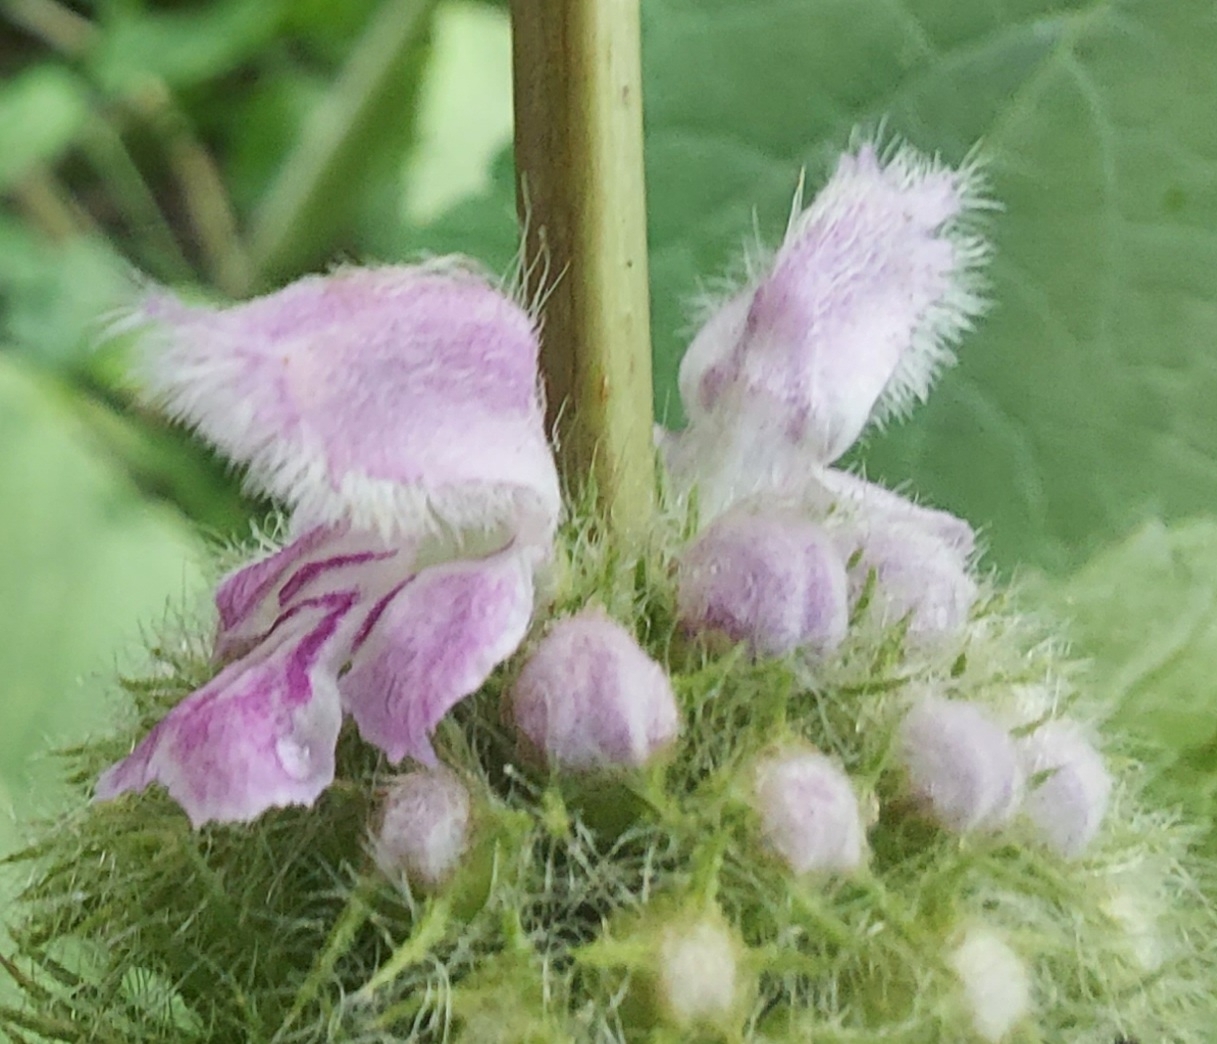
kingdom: Plantae
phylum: Tracheophyta
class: Magnoliopsida
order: Lamiales
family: Lamiaceae
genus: Phlomoides
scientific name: Phlomoides tuberosa
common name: Tuberous jerusalem sage
